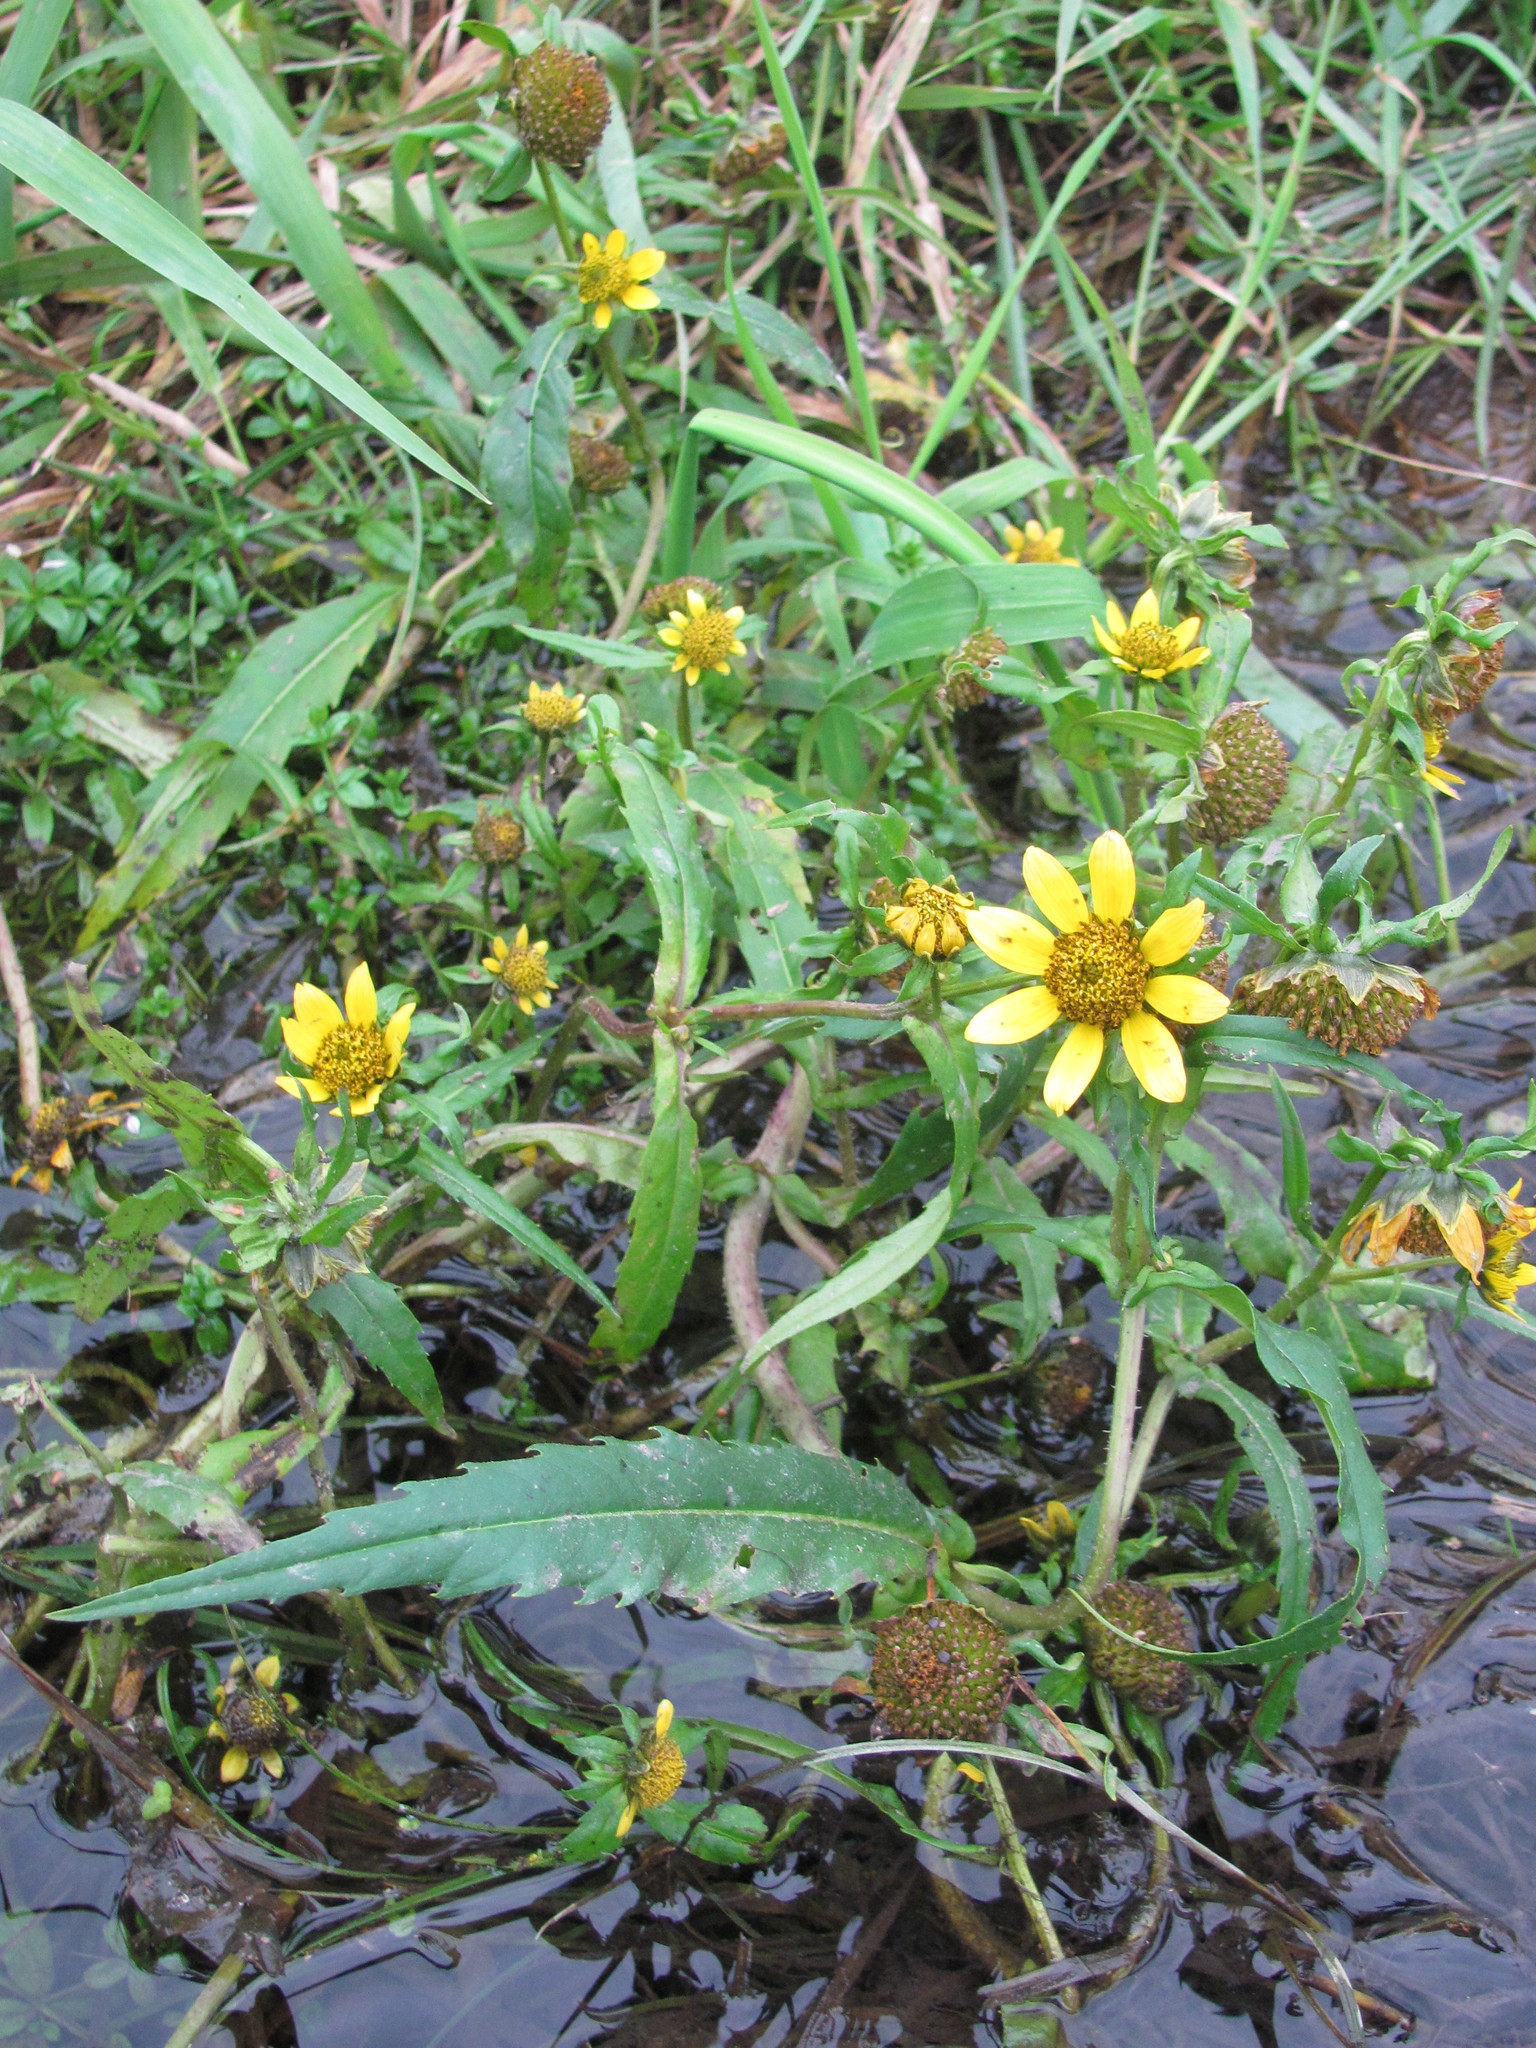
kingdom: Plantae
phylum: Tracheophyta
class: Magnoliopsida
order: Asterales
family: Asteraceae
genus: Bidens
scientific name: Bidens cernua
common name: Nodding bur-marigold
